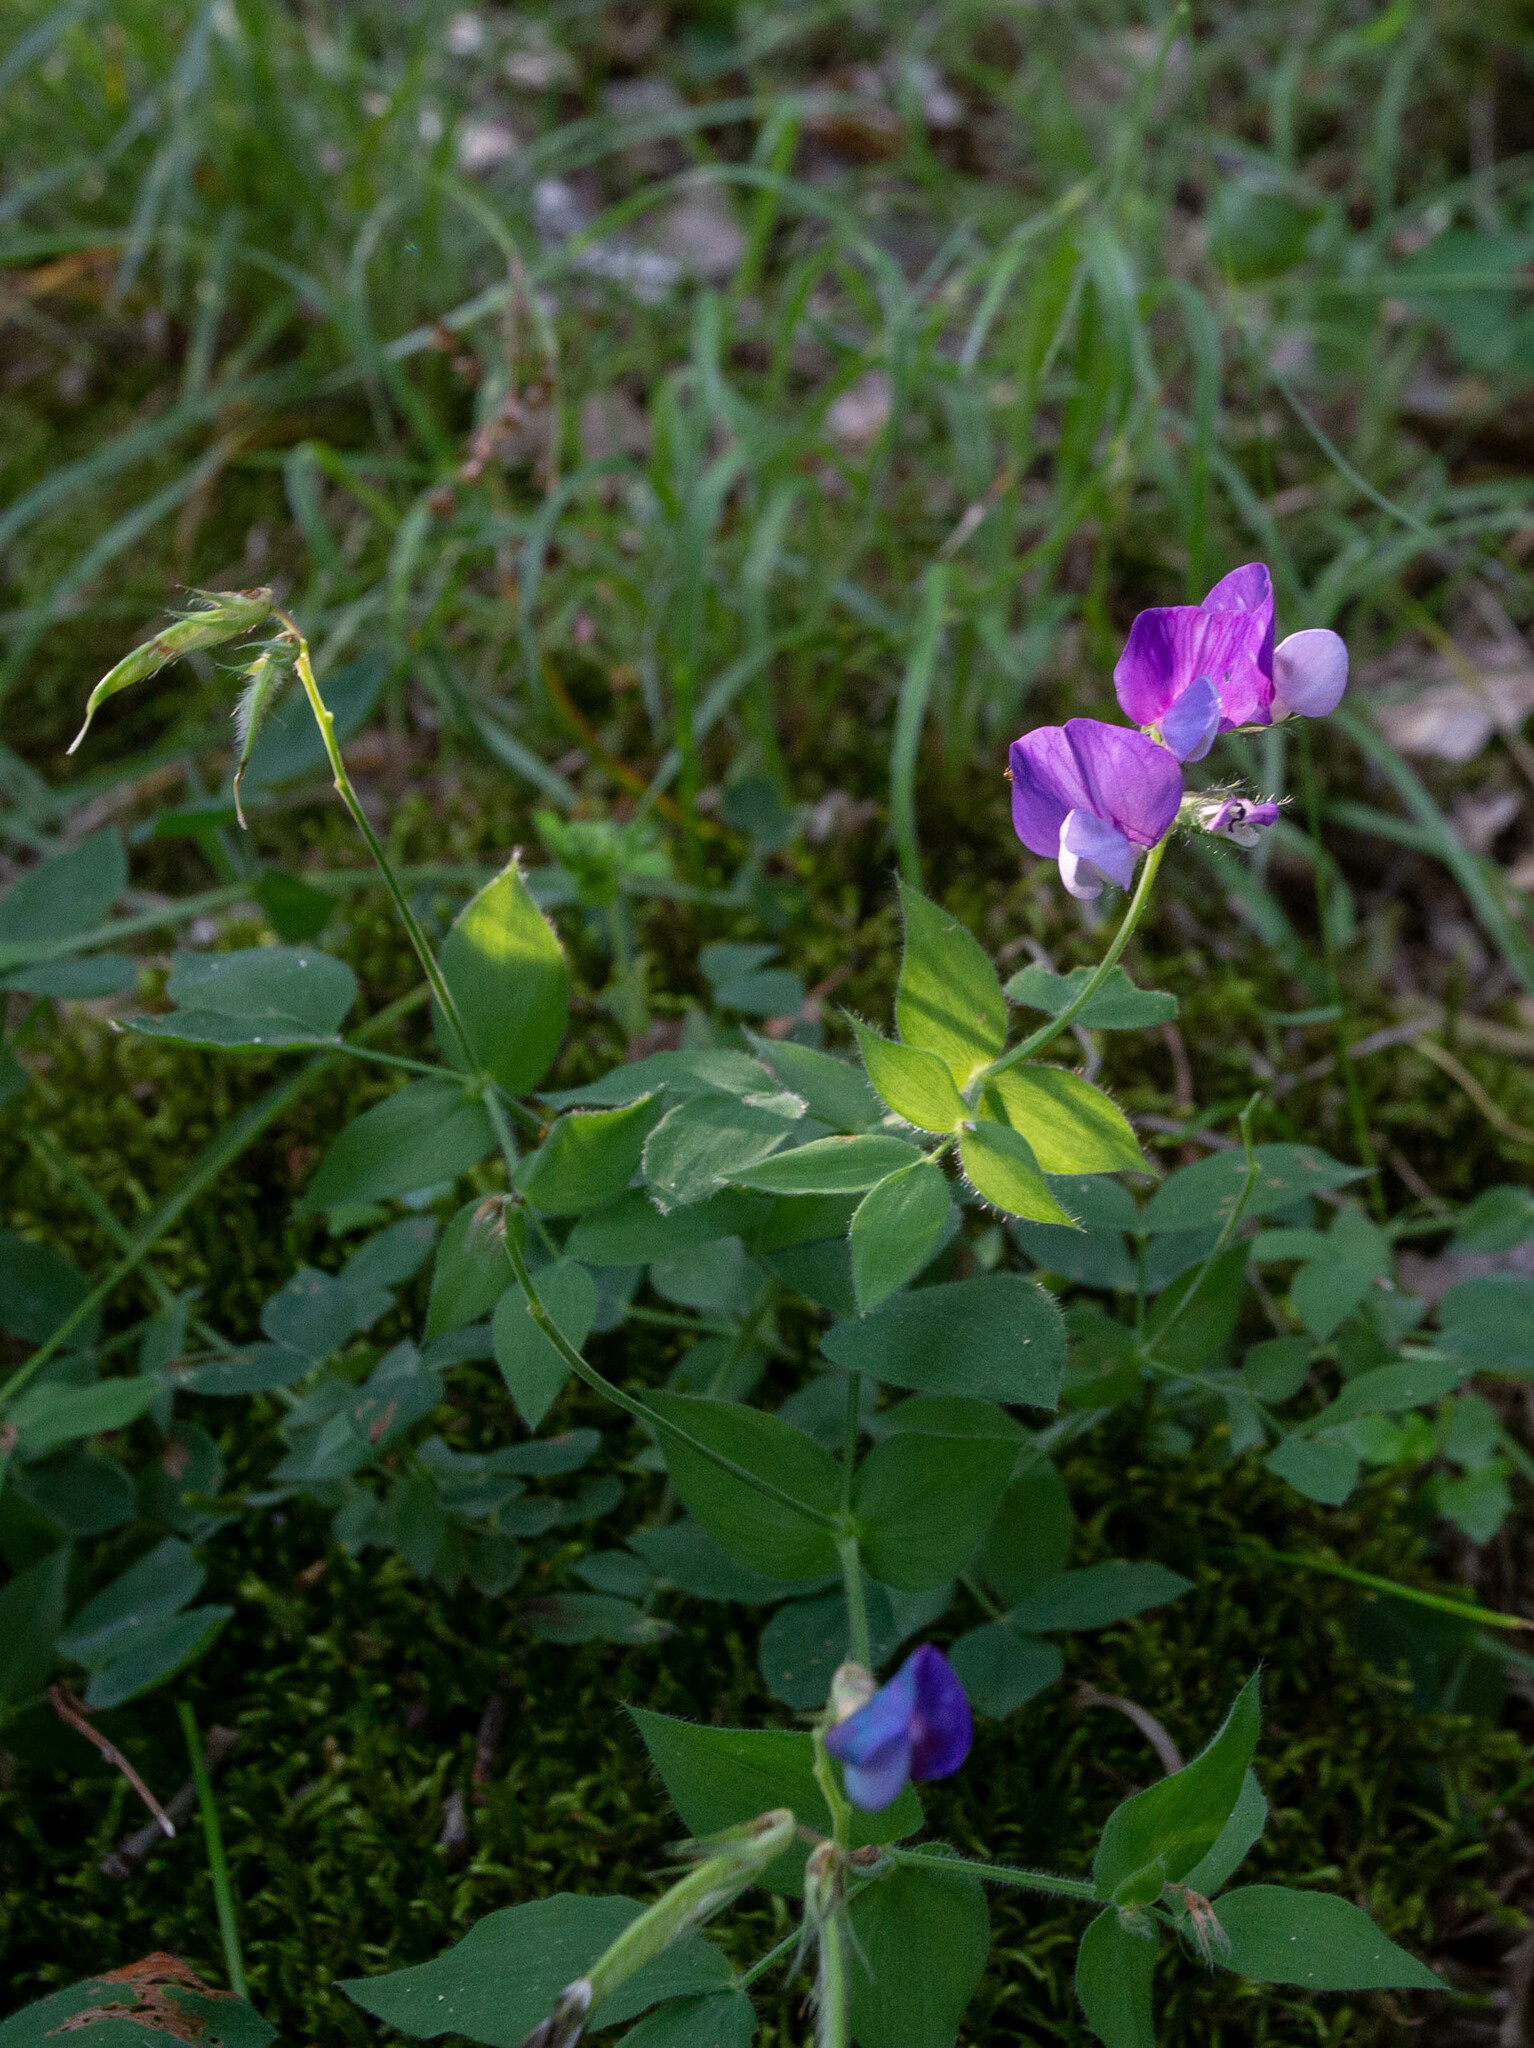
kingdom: Plantae
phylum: Tracheophyta
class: Magnoliopsida
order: Fabales
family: Fabaceae
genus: Lathyrus
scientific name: Lathyrus laxiflorus
